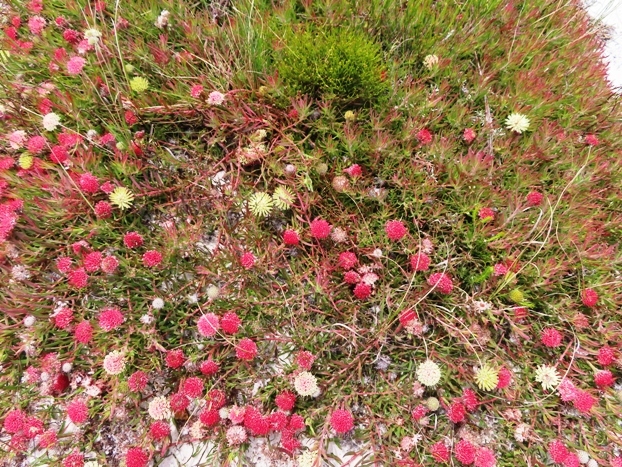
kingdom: Plantae
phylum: Tracheophyta
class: Magnoliopsida
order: Proteales
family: Proteaceae
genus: Leucospermum
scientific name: Leucospermum pedunculatum
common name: White-trailing pincushion
